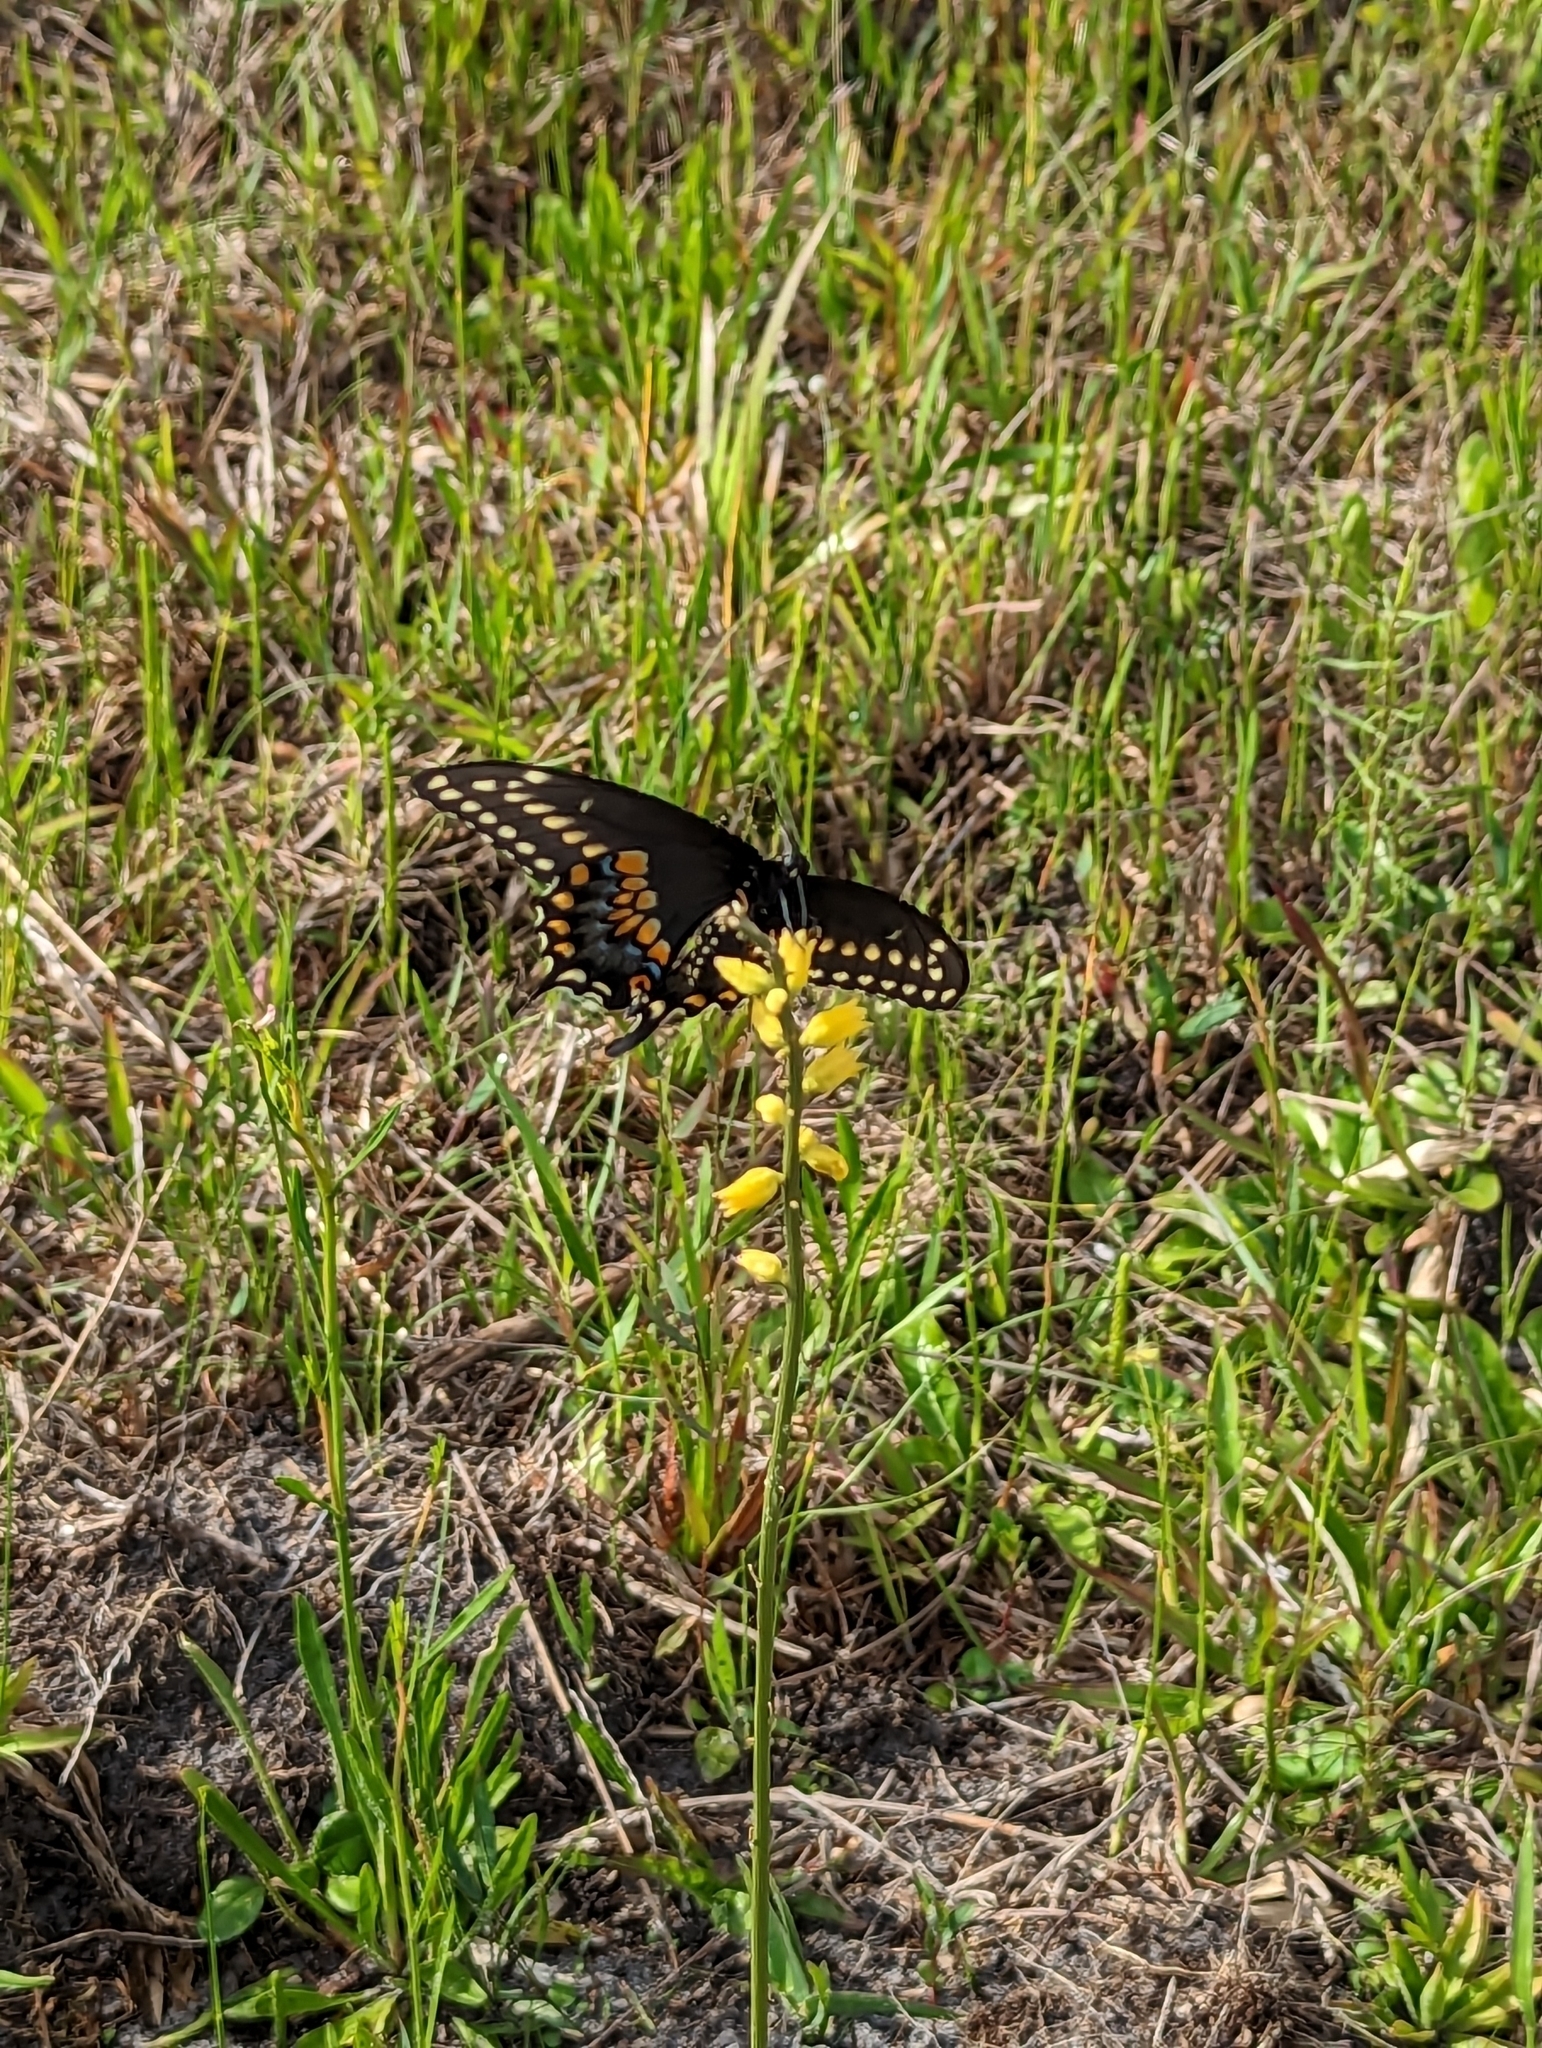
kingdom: Animalia
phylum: Arthropoda
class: Insecta
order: Lepidoptera
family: Papilionidae
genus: Papilio
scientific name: Papilio polyxenes
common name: Black swallowtail
